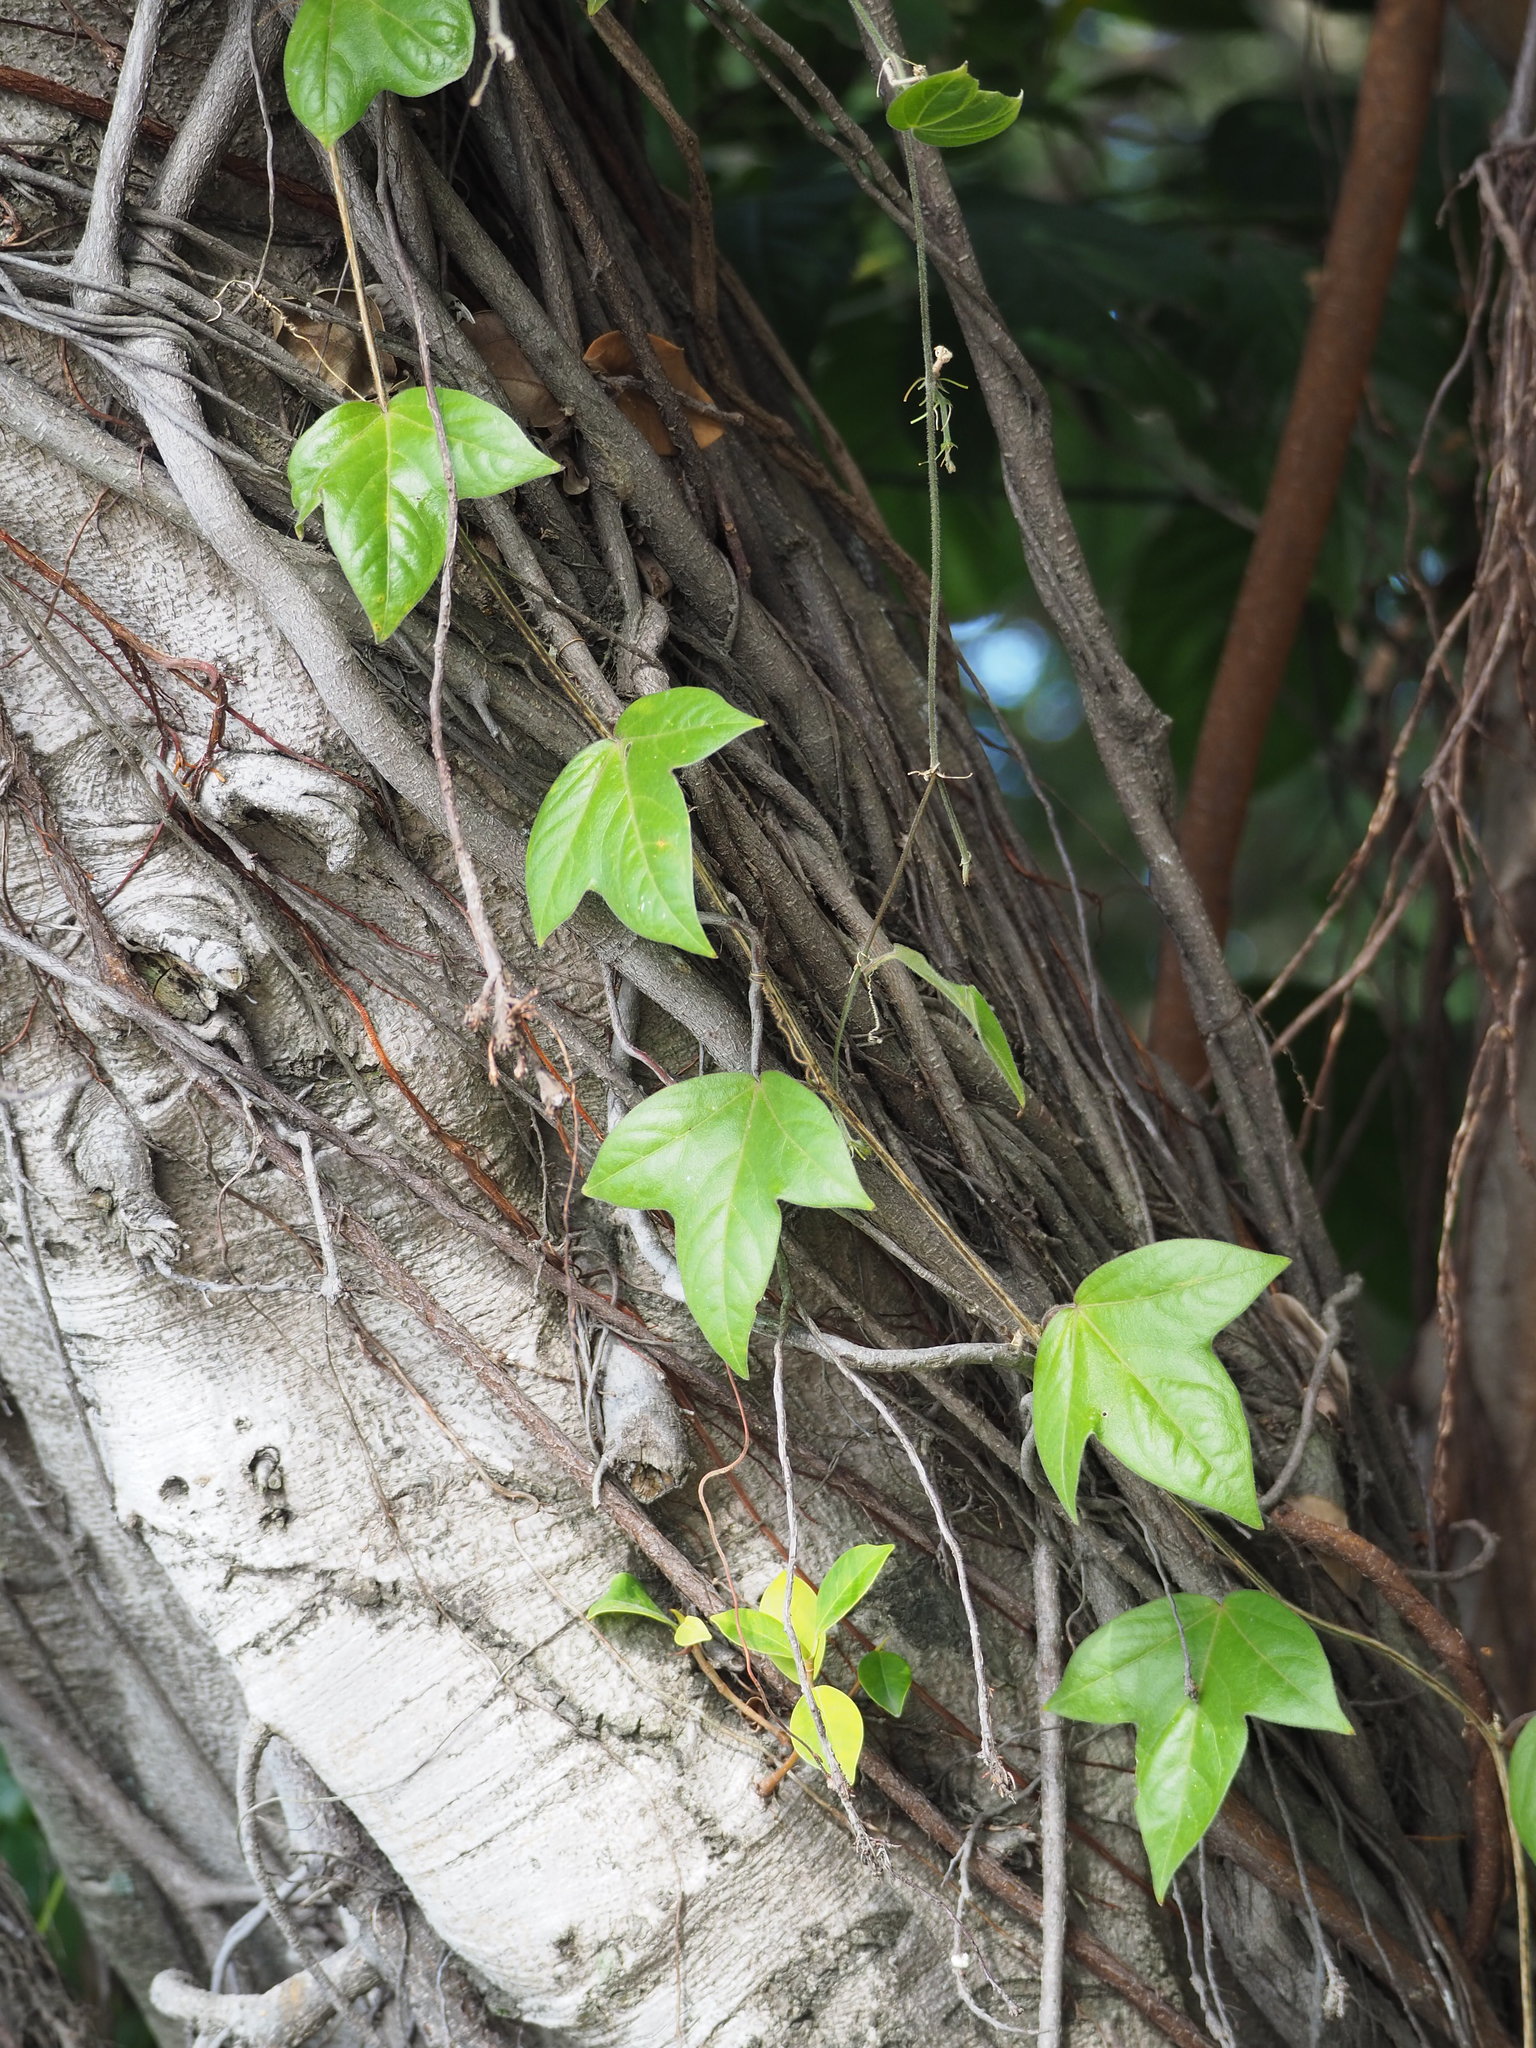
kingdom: Plantae
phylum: Tracheophyta
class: Magnoliopsida
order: Malpighiales
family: Passifloraceae
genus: Passiflora
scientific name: Passiflora suberosa
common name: Wild passionfruit
